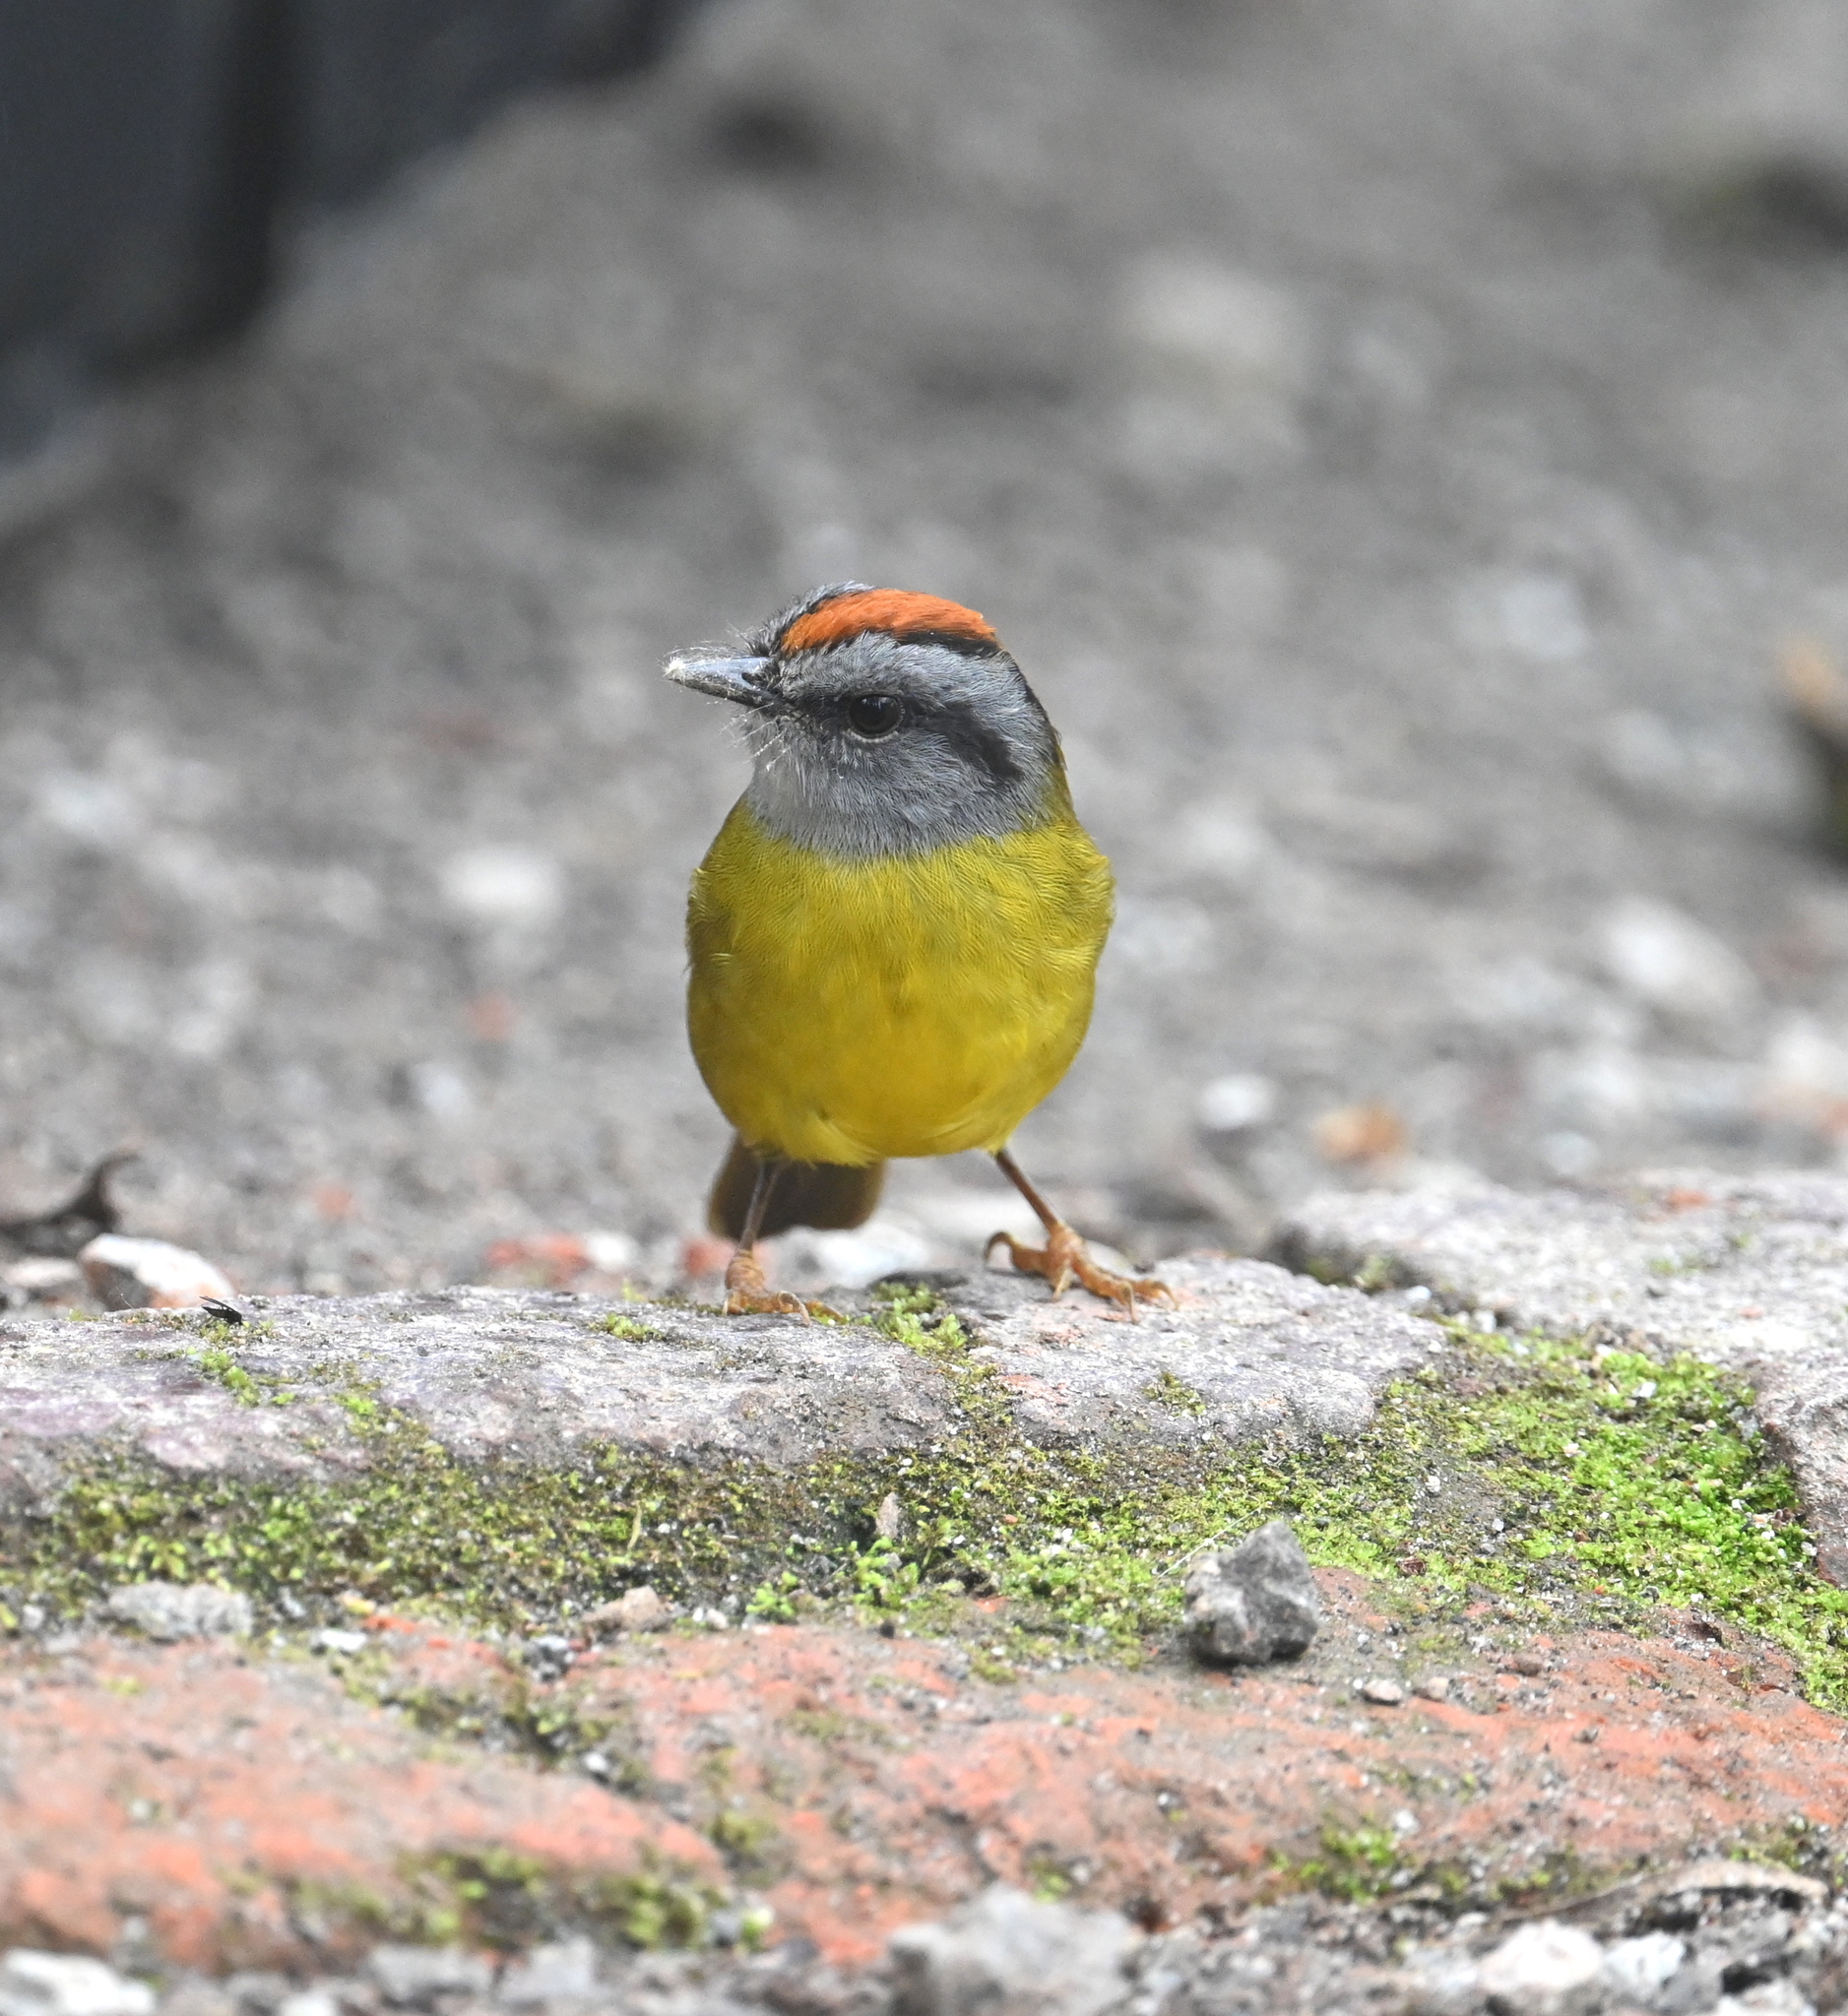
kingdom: Animalia
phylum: Chordata
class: Aves
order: Passeriformes
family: Parulidae
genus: Myiothlypis
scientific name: Myiothlypis coronata
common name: Russet-crowned warbler
